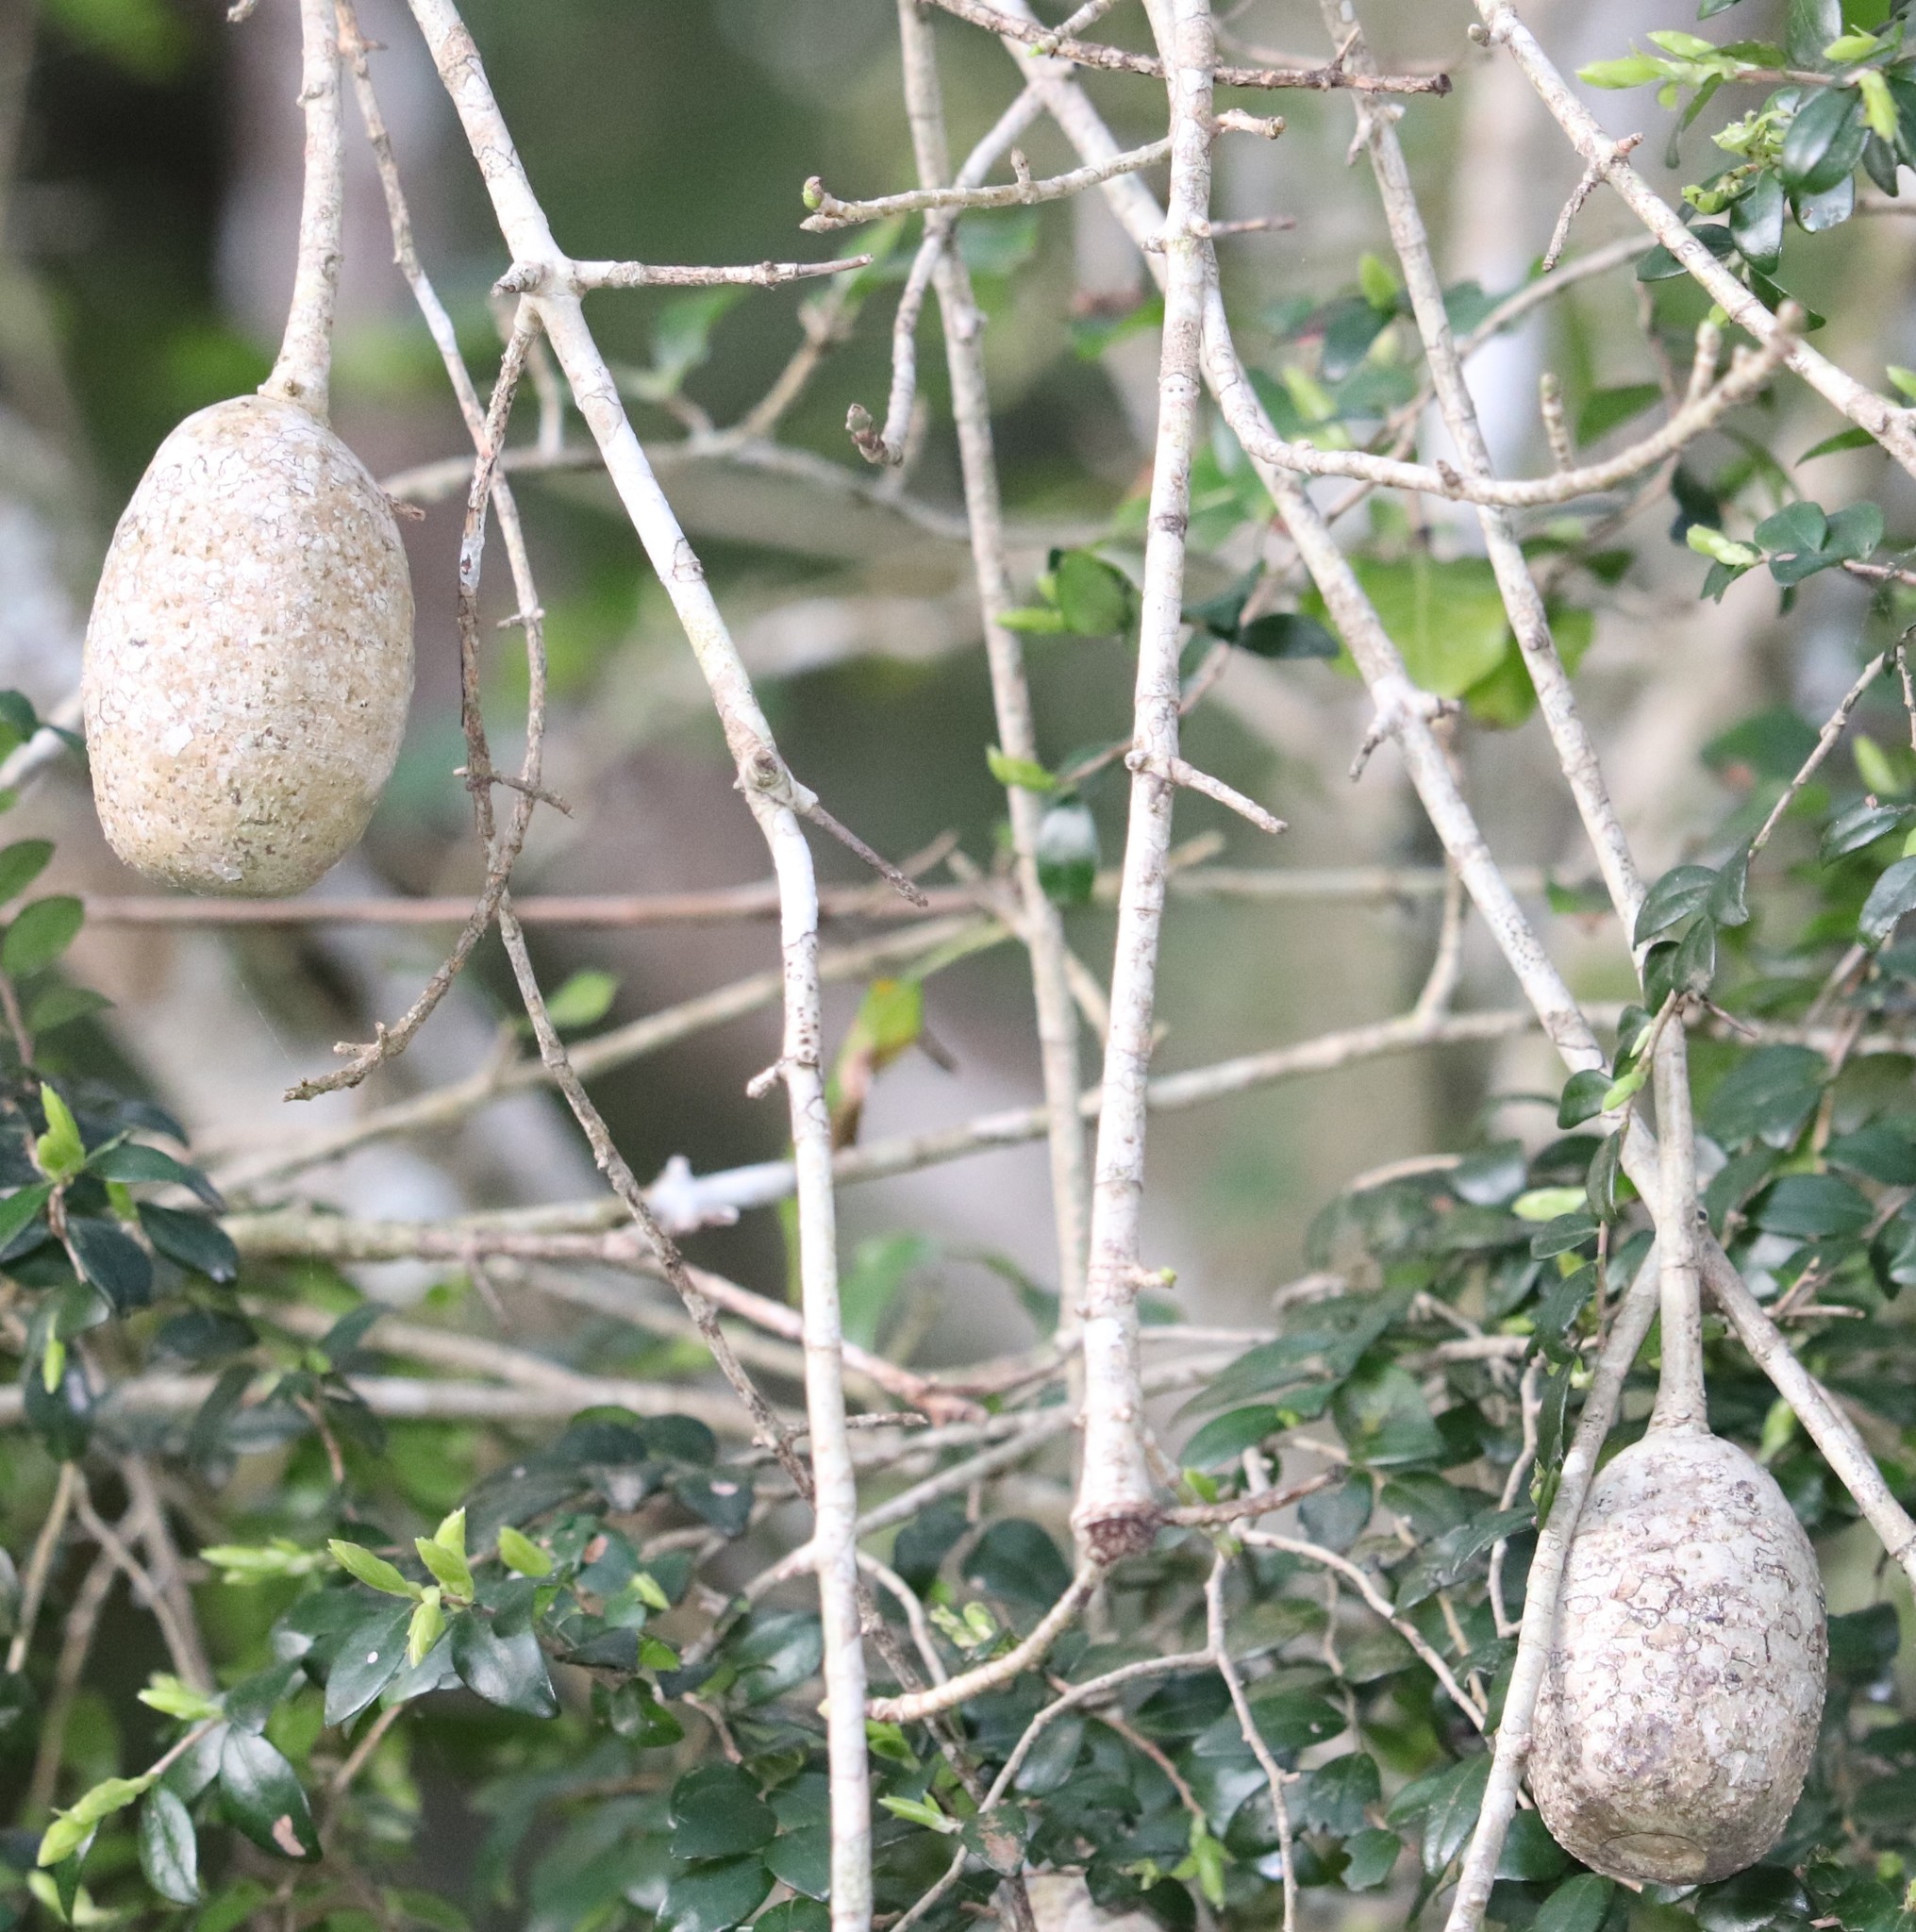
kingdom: Plantae
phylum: Tracheophyta
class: Magnoliopsida
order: Gentianales
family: Rubiaceae
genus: Gardenia
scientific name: Gardenia thunbergia
